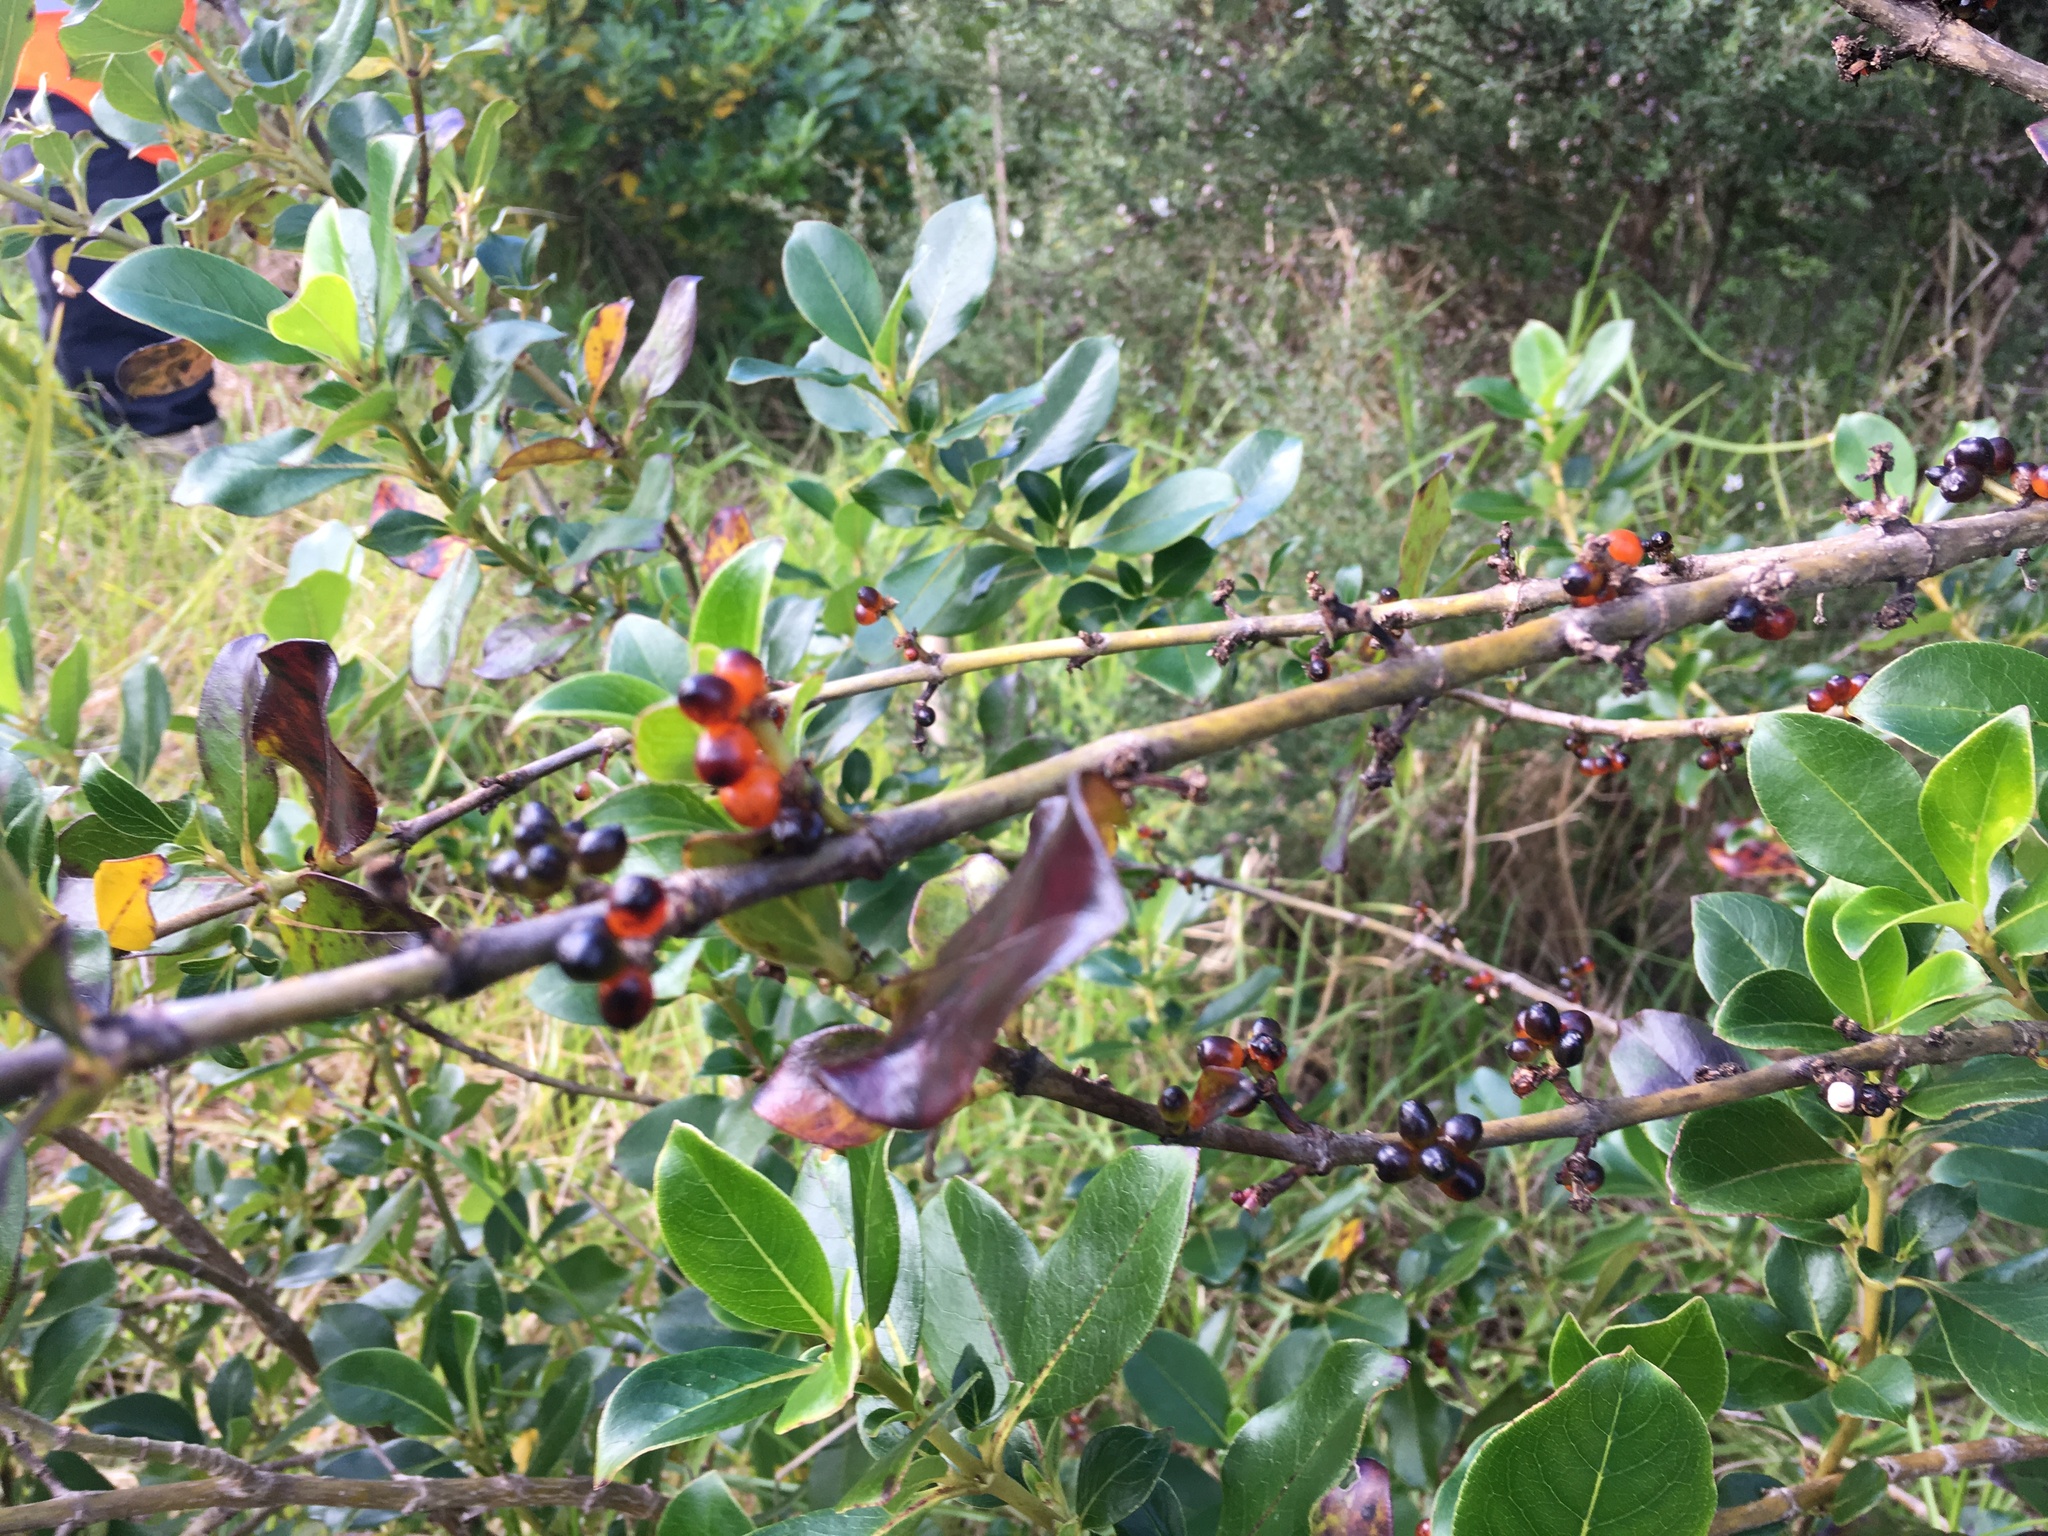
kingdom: Plantae
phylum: Tracheophyta
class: Magnoliopsida
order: Gentianales
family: Rubiaceae
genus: Coprosma
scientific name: Coprosma robusta
